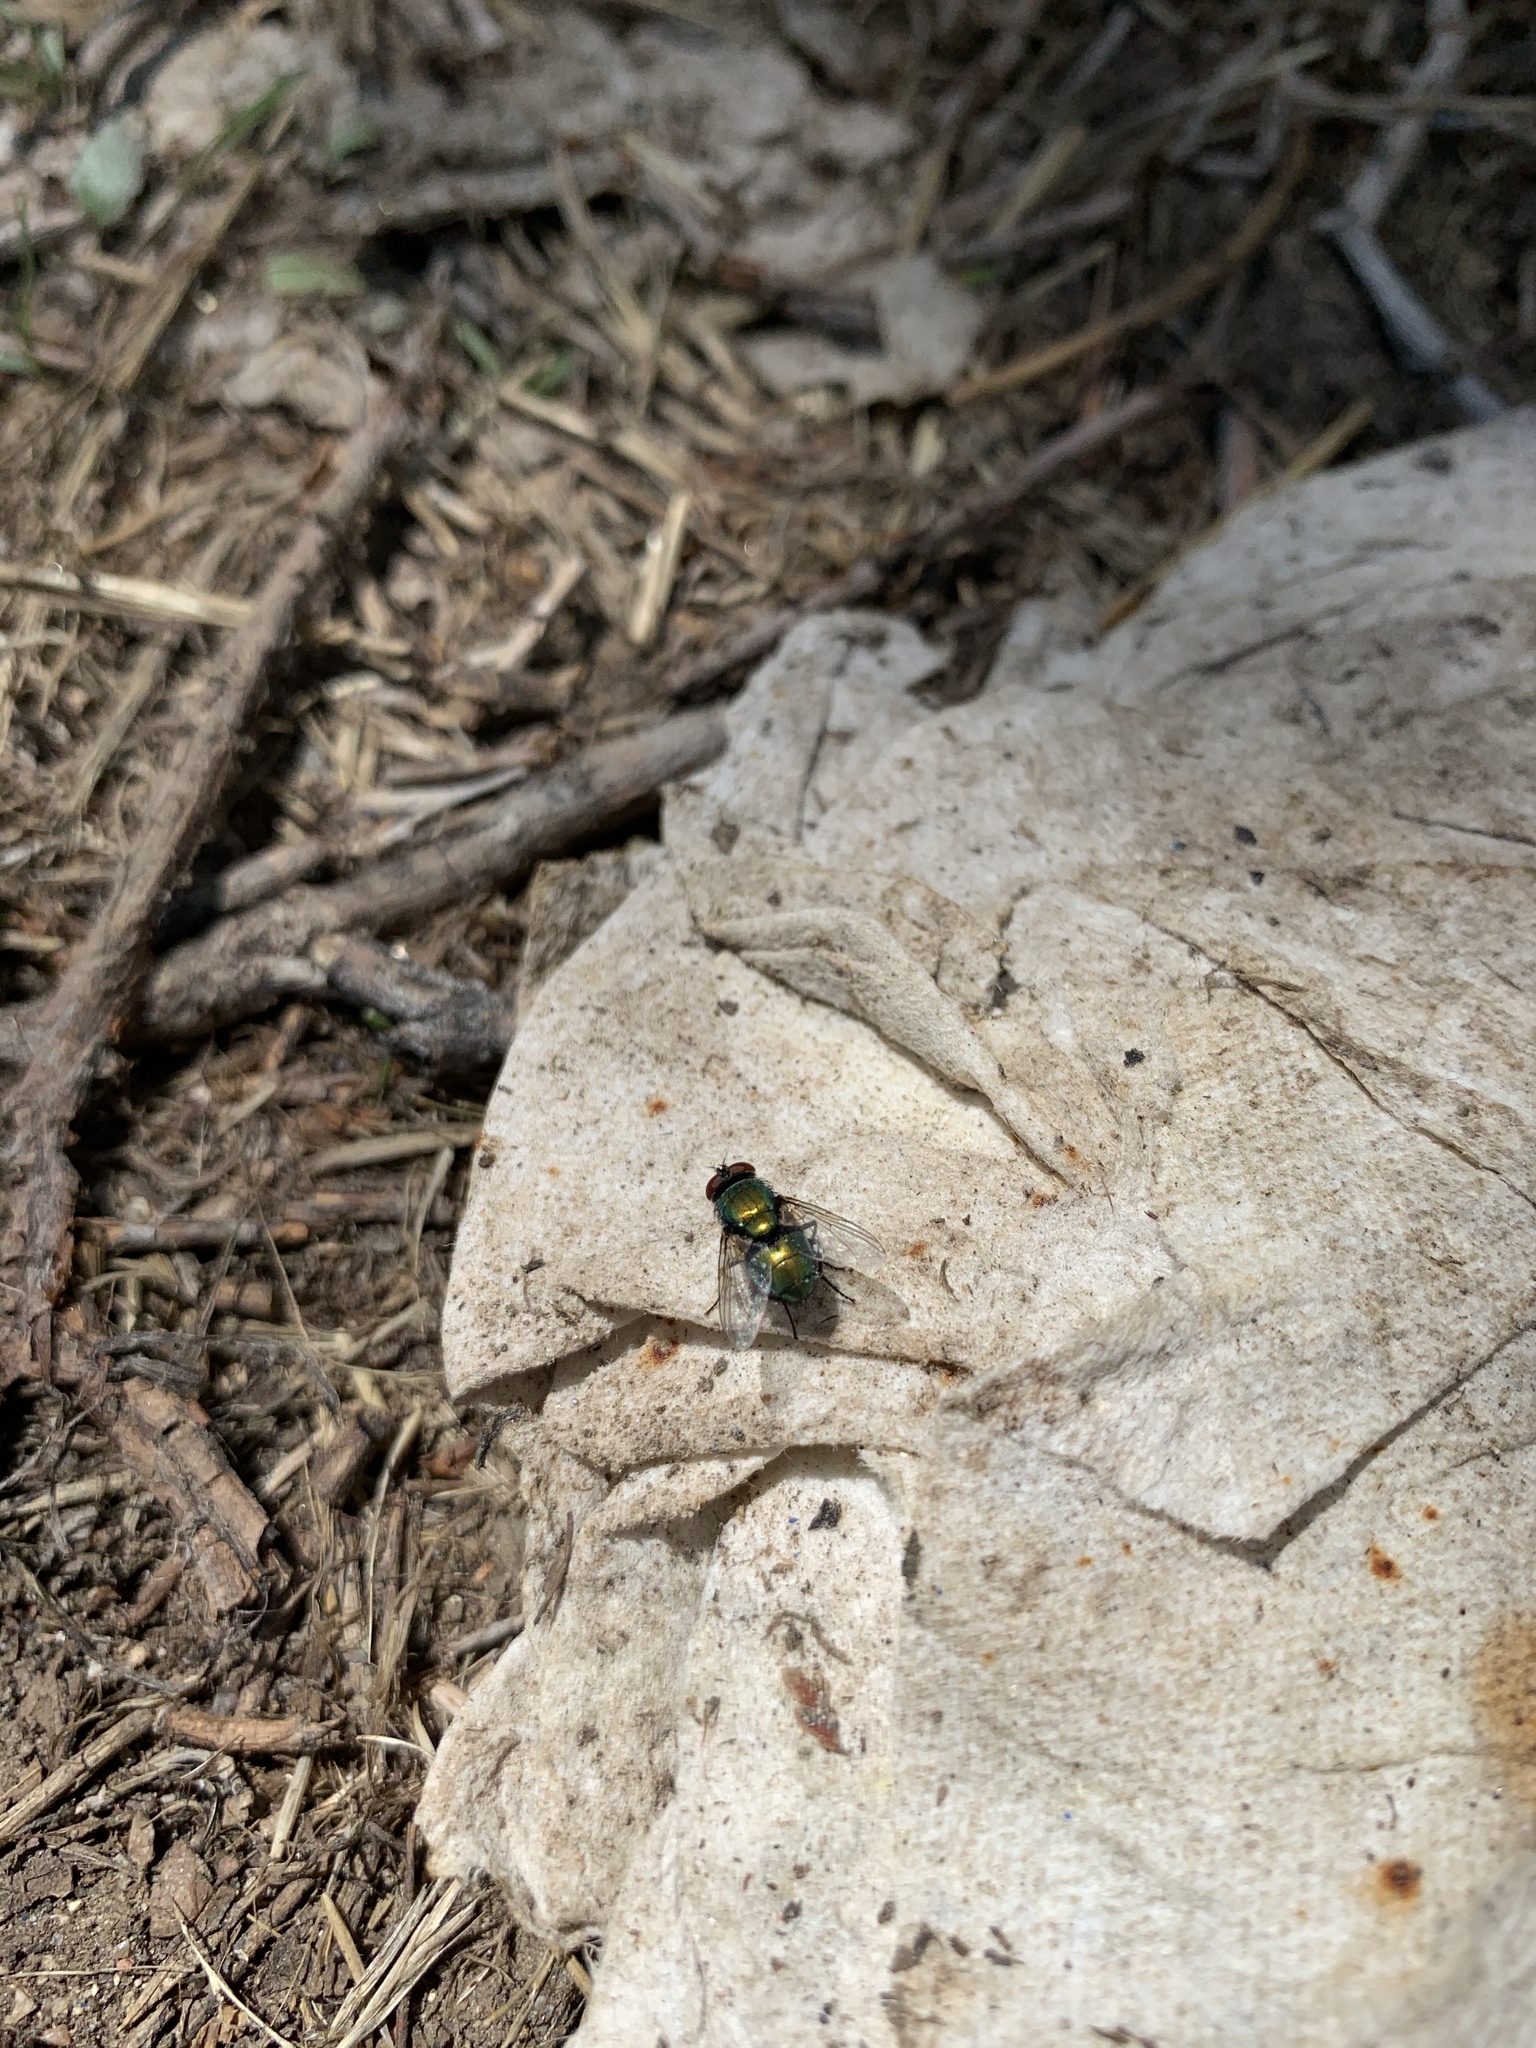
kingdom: Animalia
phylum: Arthropoda
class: Insecta
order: Diptera
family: Calliphoridae
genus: Lucilia
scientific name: Lucilia sericata
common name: Blow fly
